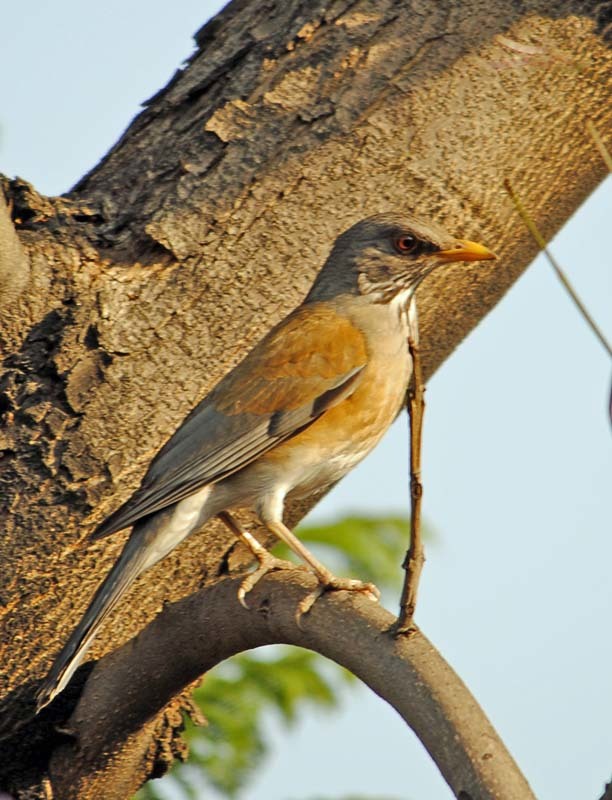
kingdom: Animalia
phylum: Chordata
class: Aves
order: Passeriformes
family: Turdidae
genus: Turdus
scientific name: Turdus rufopalliatus
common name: Rufous-backed robin
